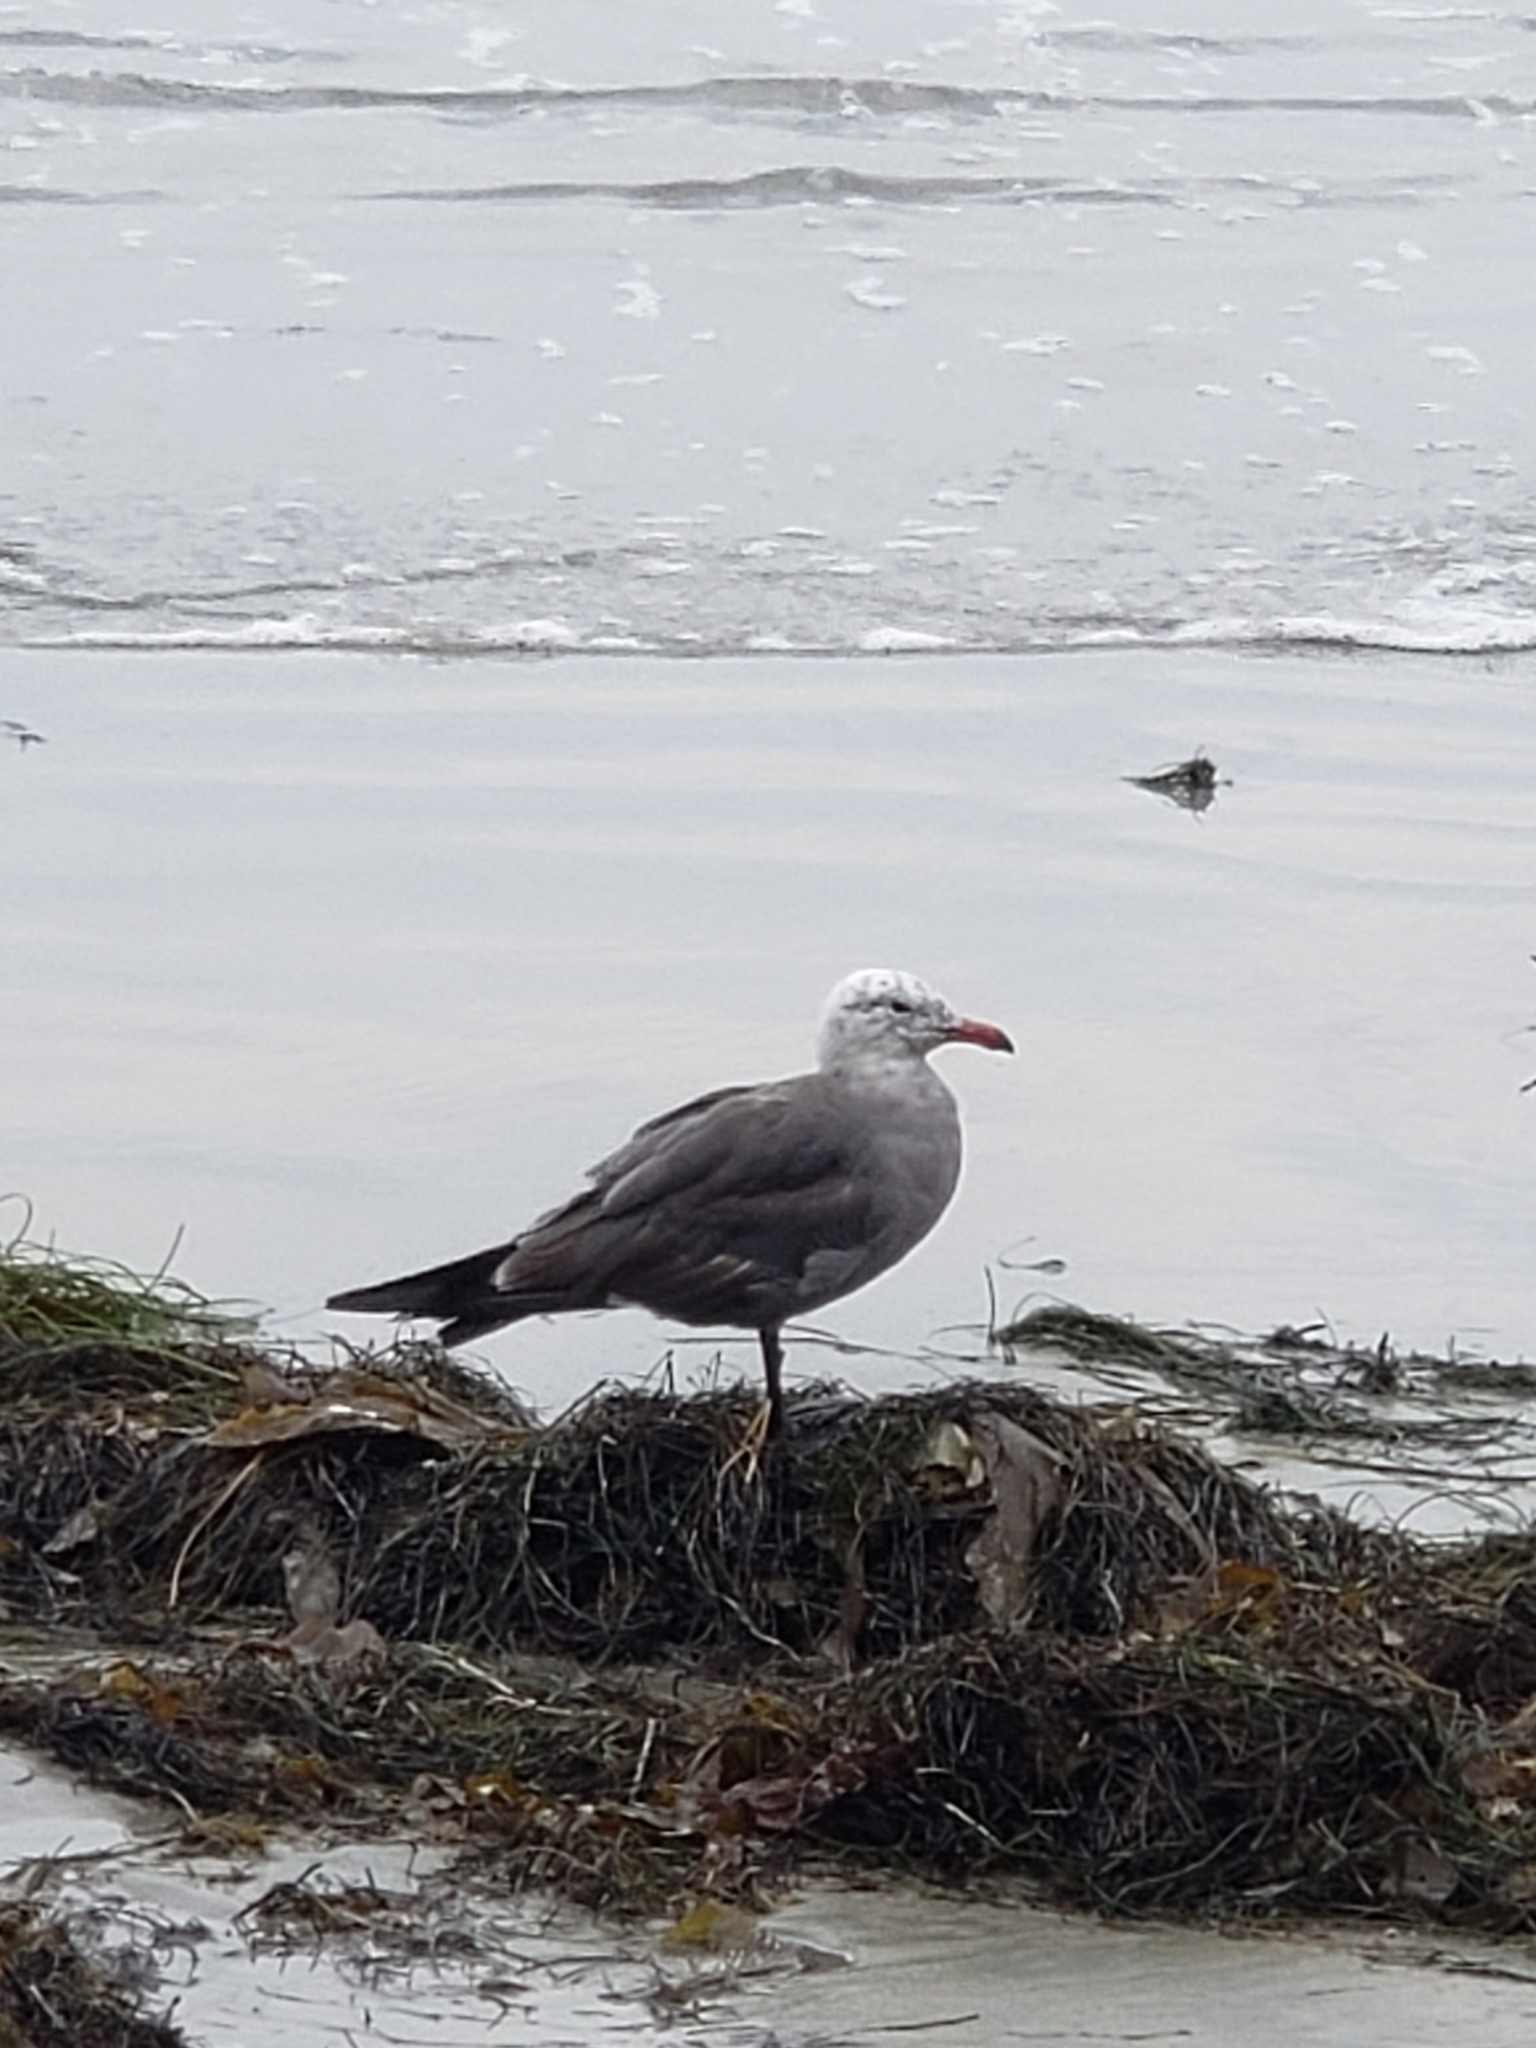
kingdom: Animalia
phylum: Chordata
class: Aves
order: Charadriiformes
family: Laridae
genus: Larus
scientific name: Larus heermanni
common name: Heermann's gull
